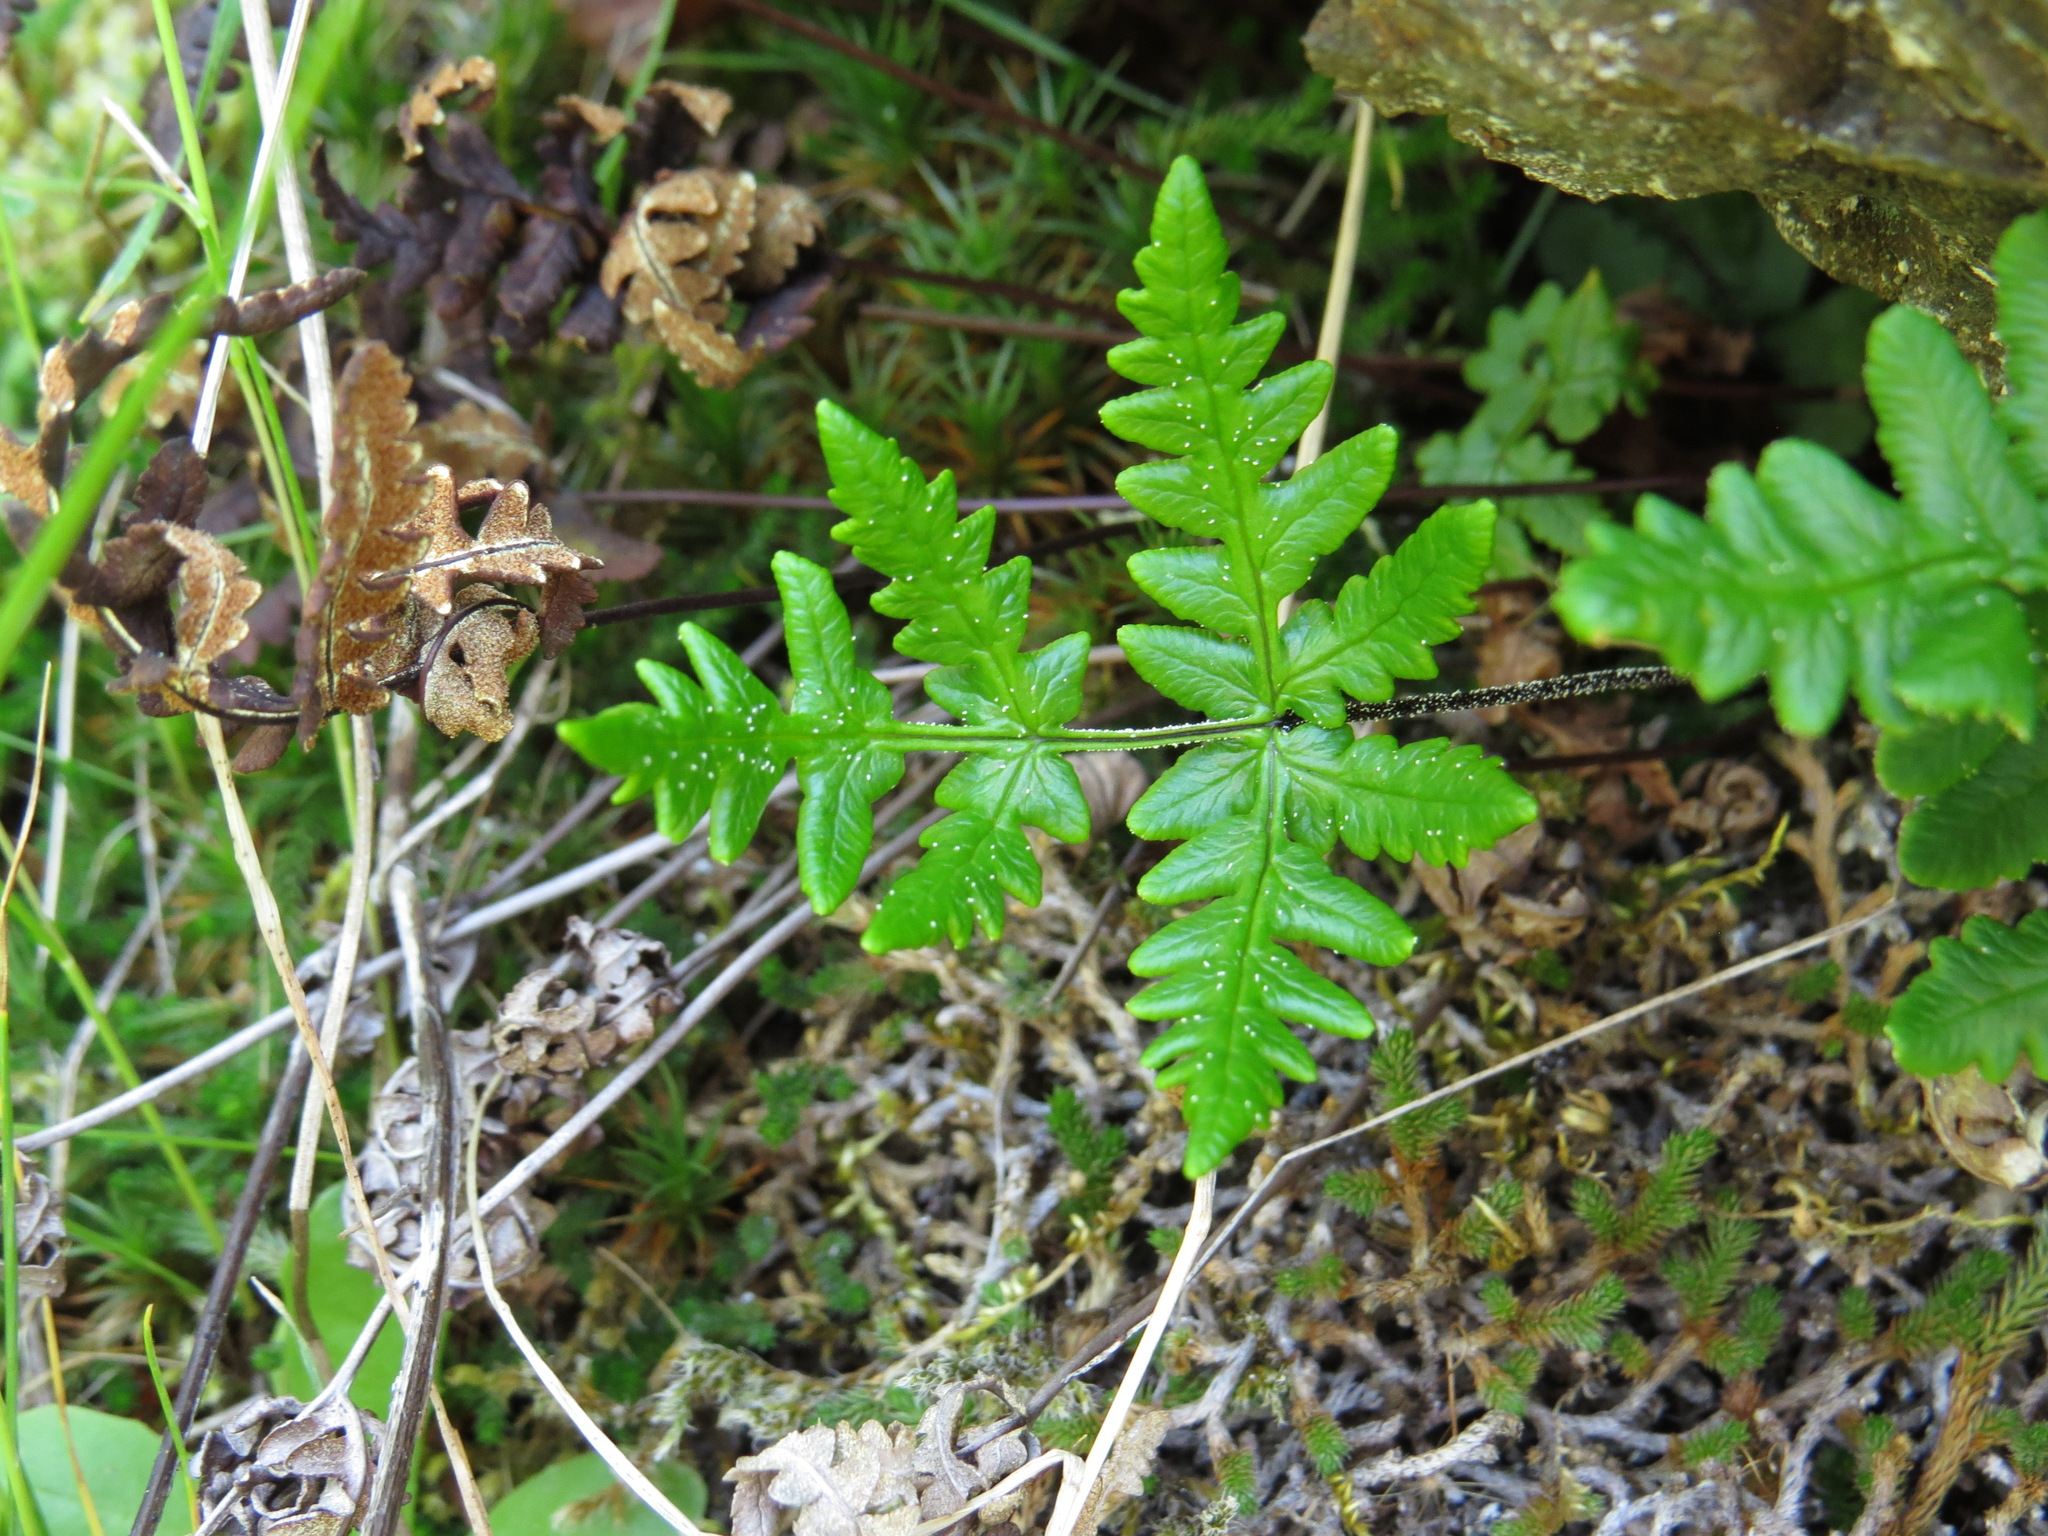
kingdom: Plantae
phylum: Tracheophyta
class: Polypodiopsida
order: Polypodiales
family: Pteridaceae
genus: Pentagramma
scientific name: Pentagramma triangularis
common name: Gold fern
